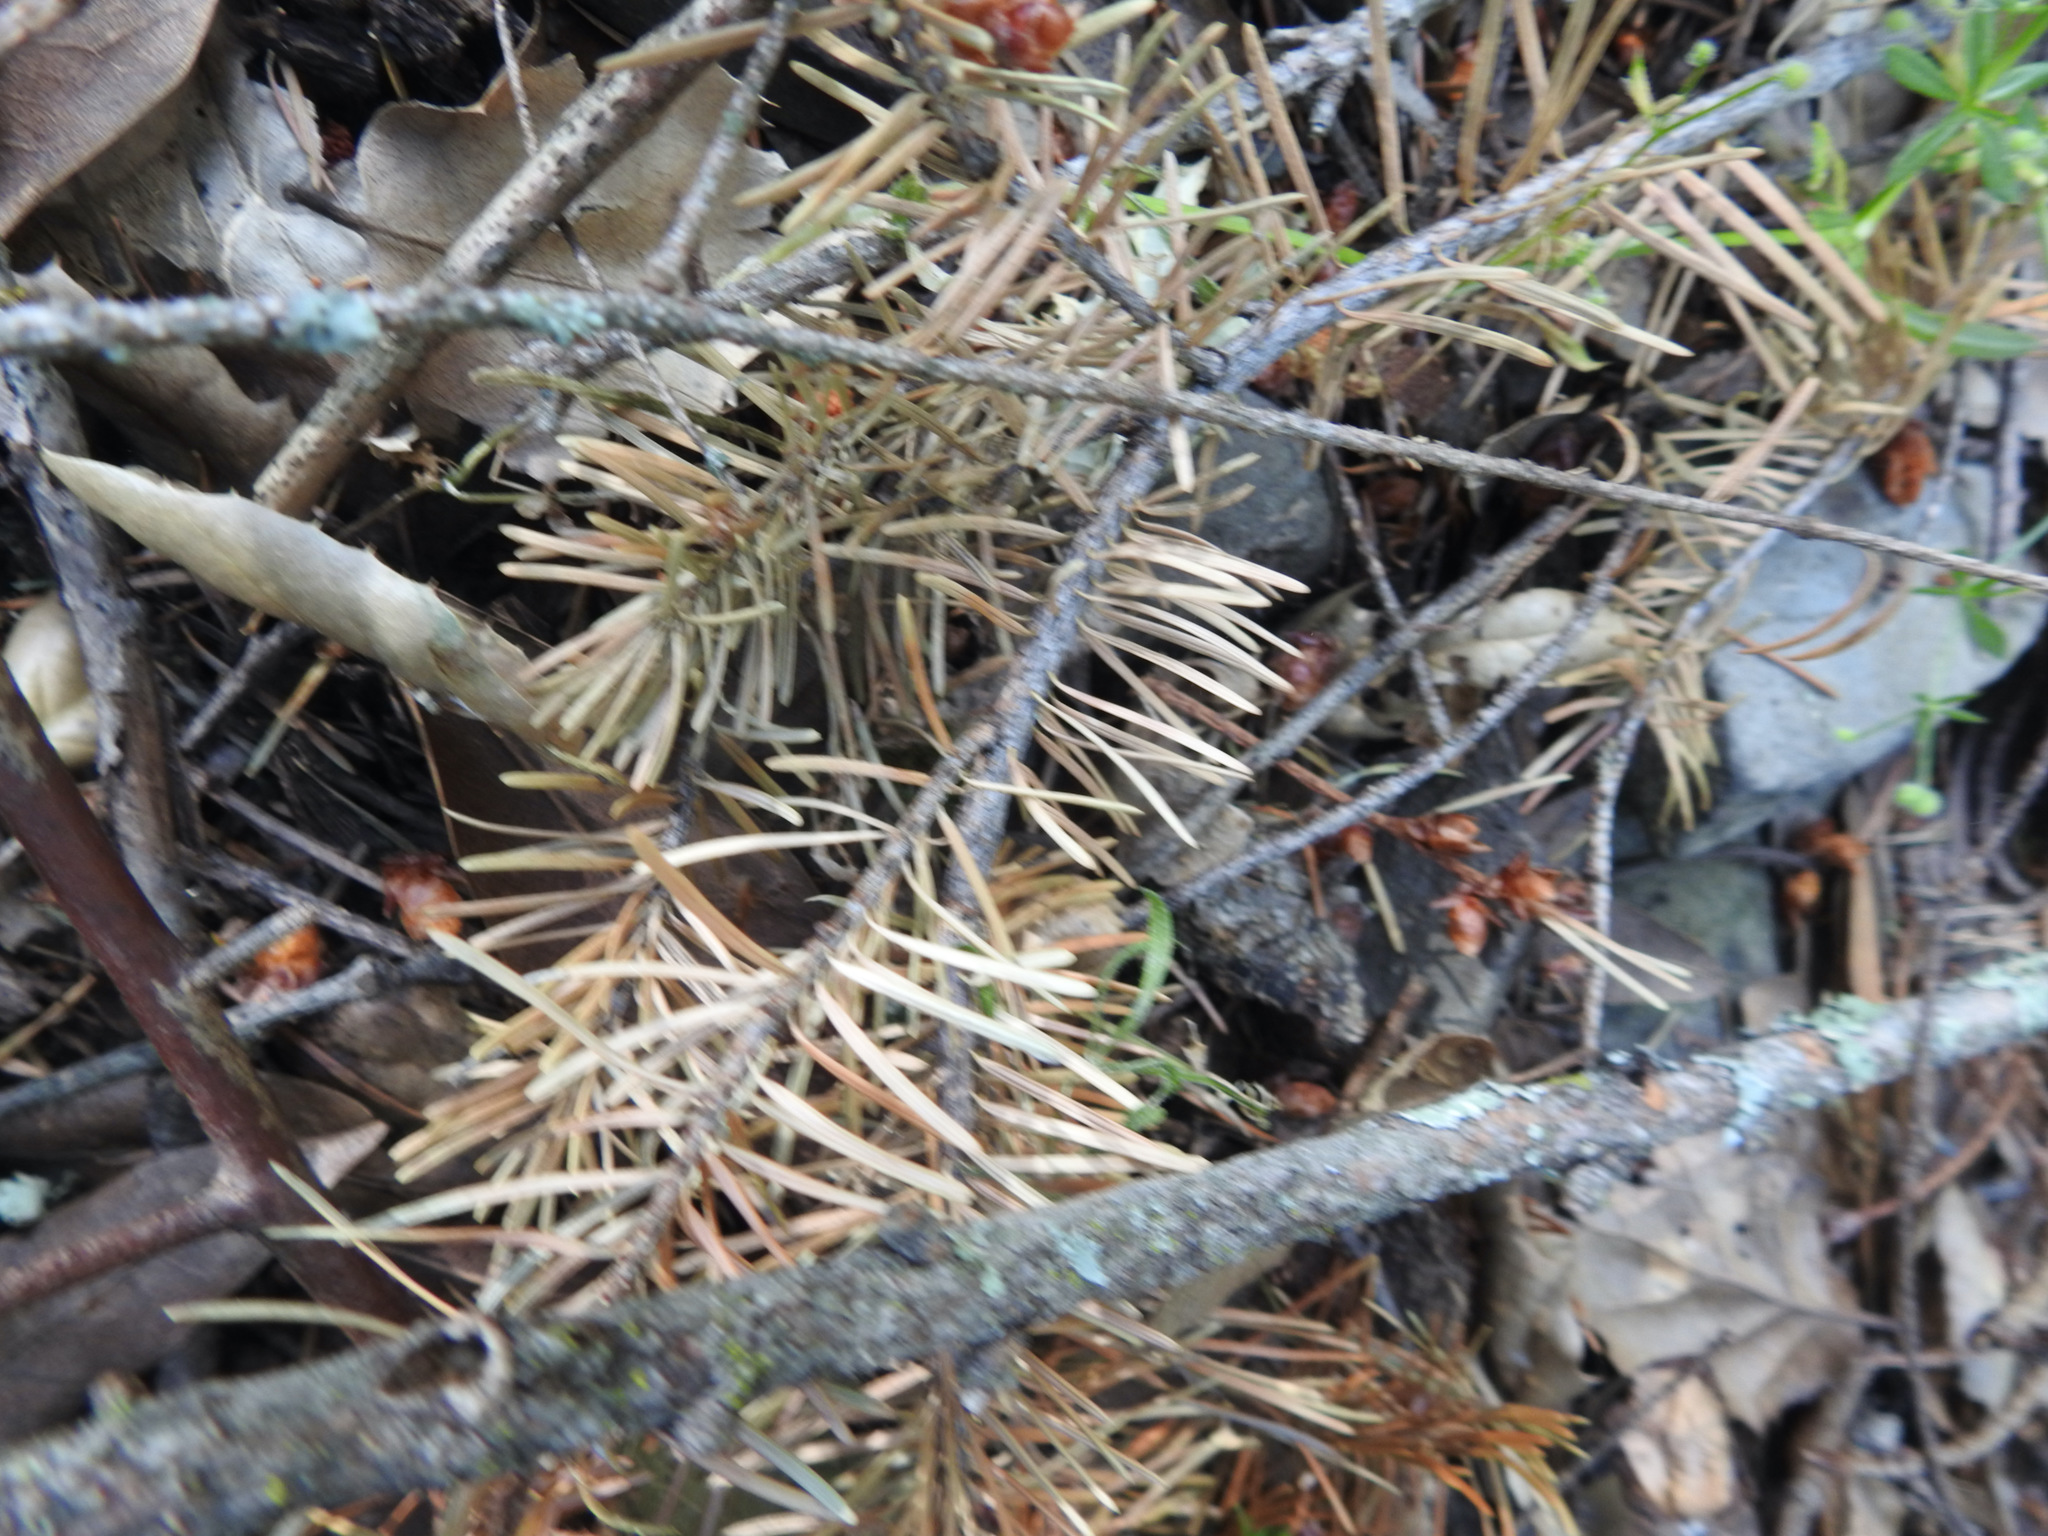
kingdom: Plantae
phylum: Tracheophyta
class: Pinopsida
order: Pinales
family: Pinaceae
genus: Pseudotsuga
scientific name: Pseudotsuga menziesii
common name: Douglas fir
